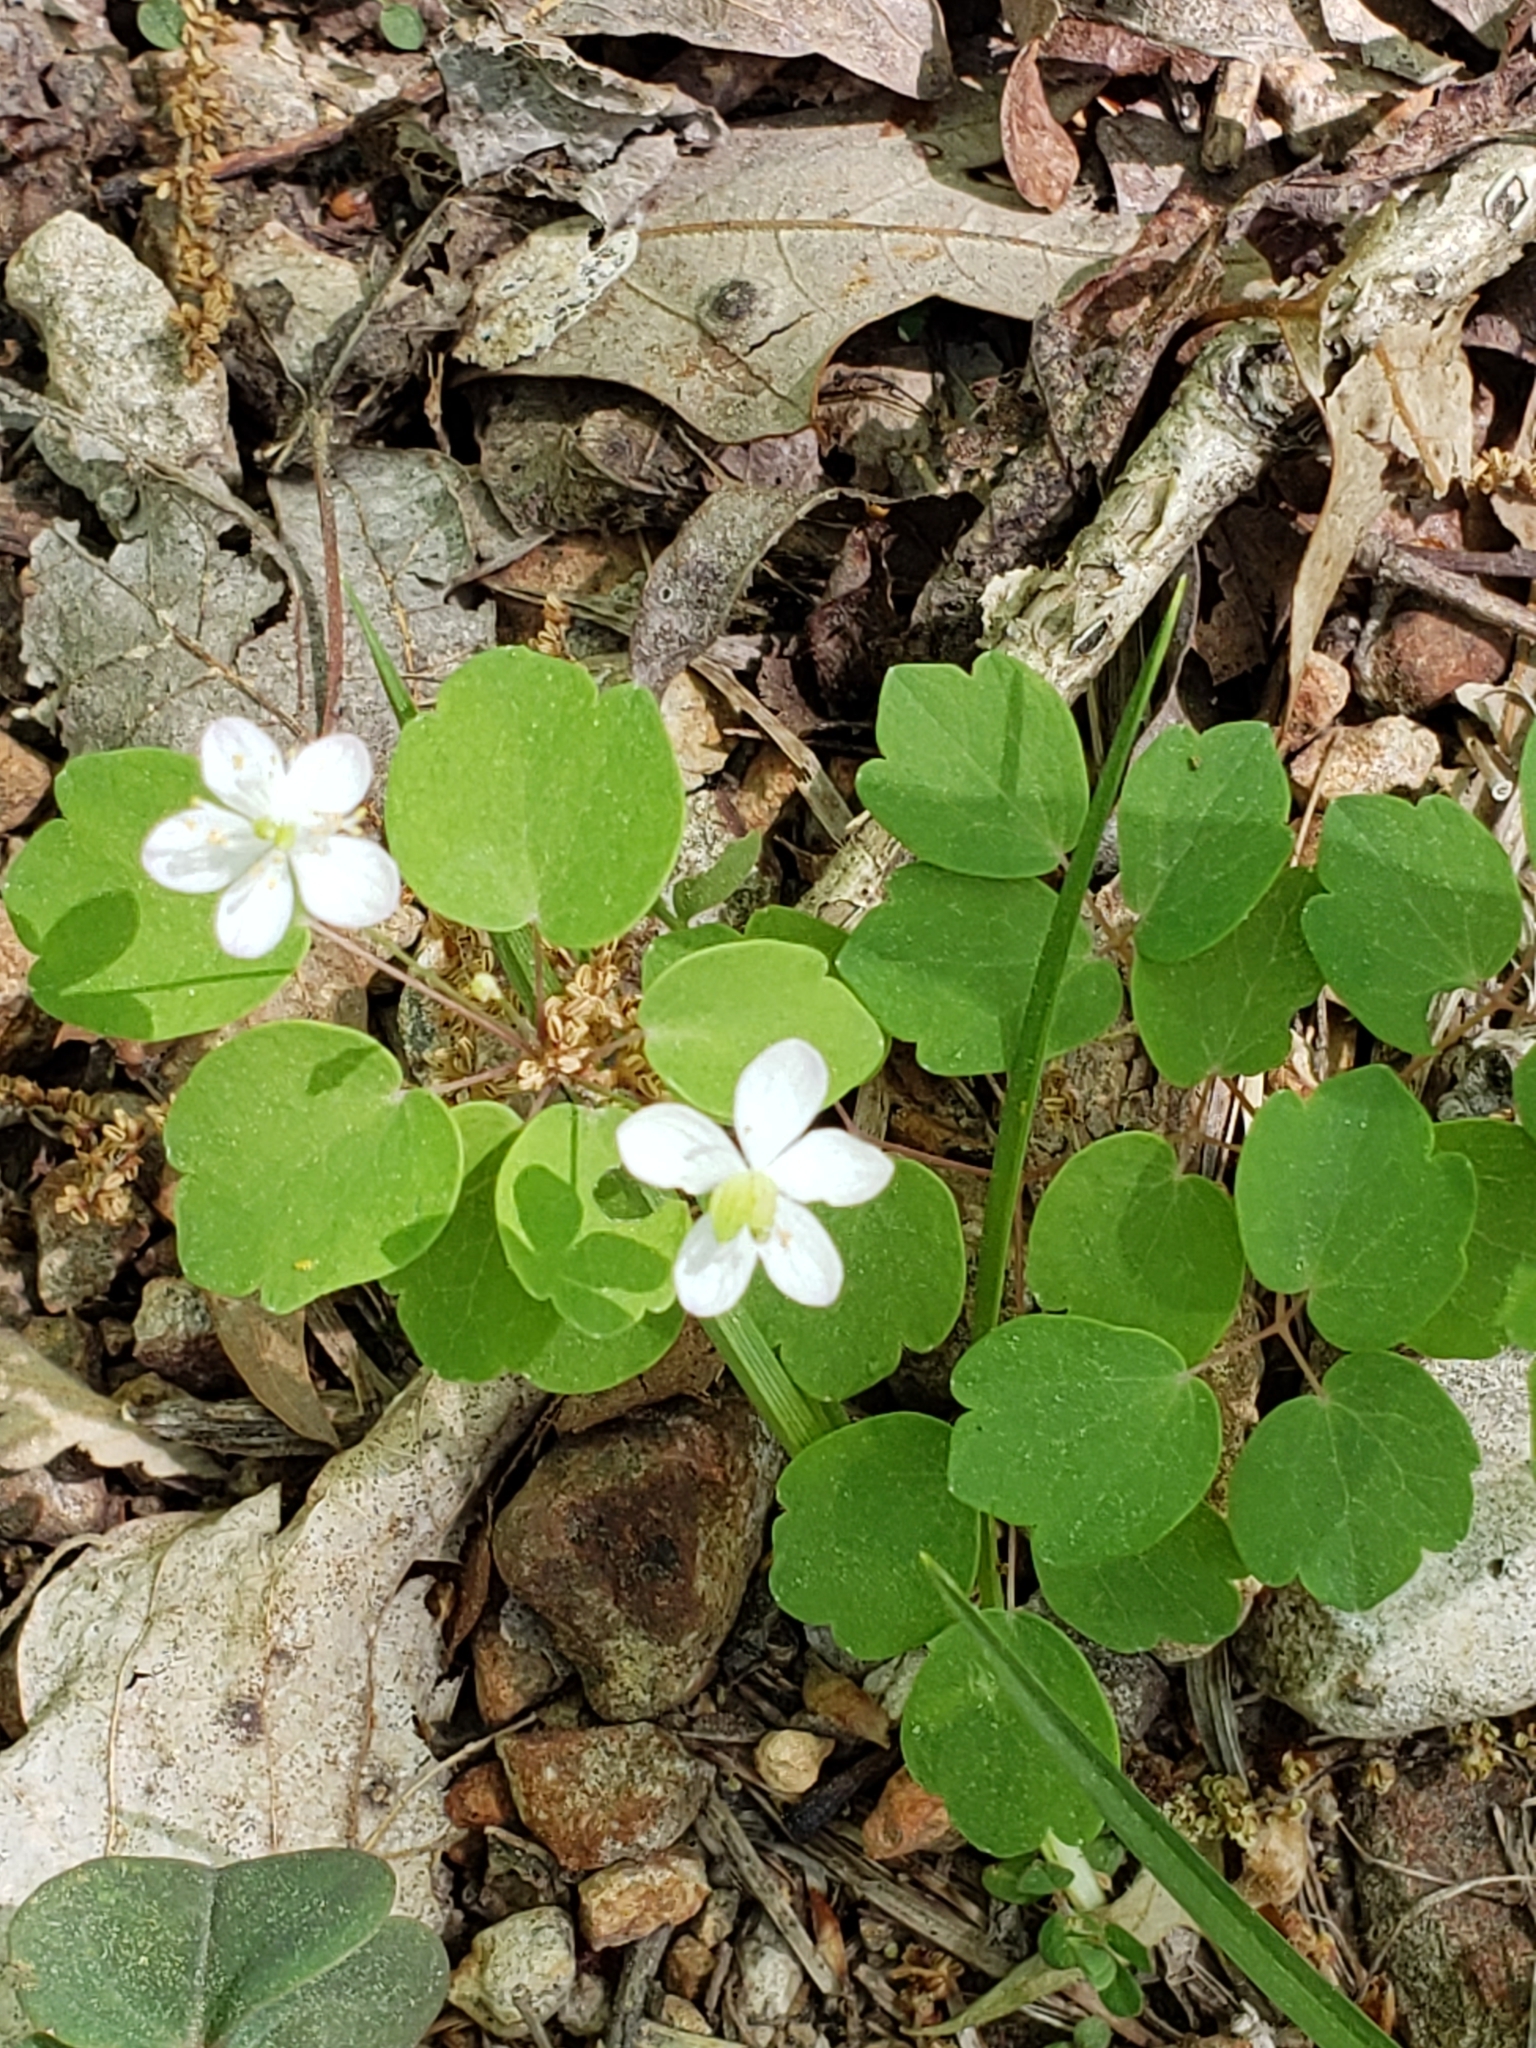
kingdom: Plantae
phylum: Tracheophyta
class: Magnoliopsida
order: Ranunculales
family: Ranunculaceae
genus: Thalictrum
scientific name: Thalictrum thalictroides
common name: Rue-anemone
